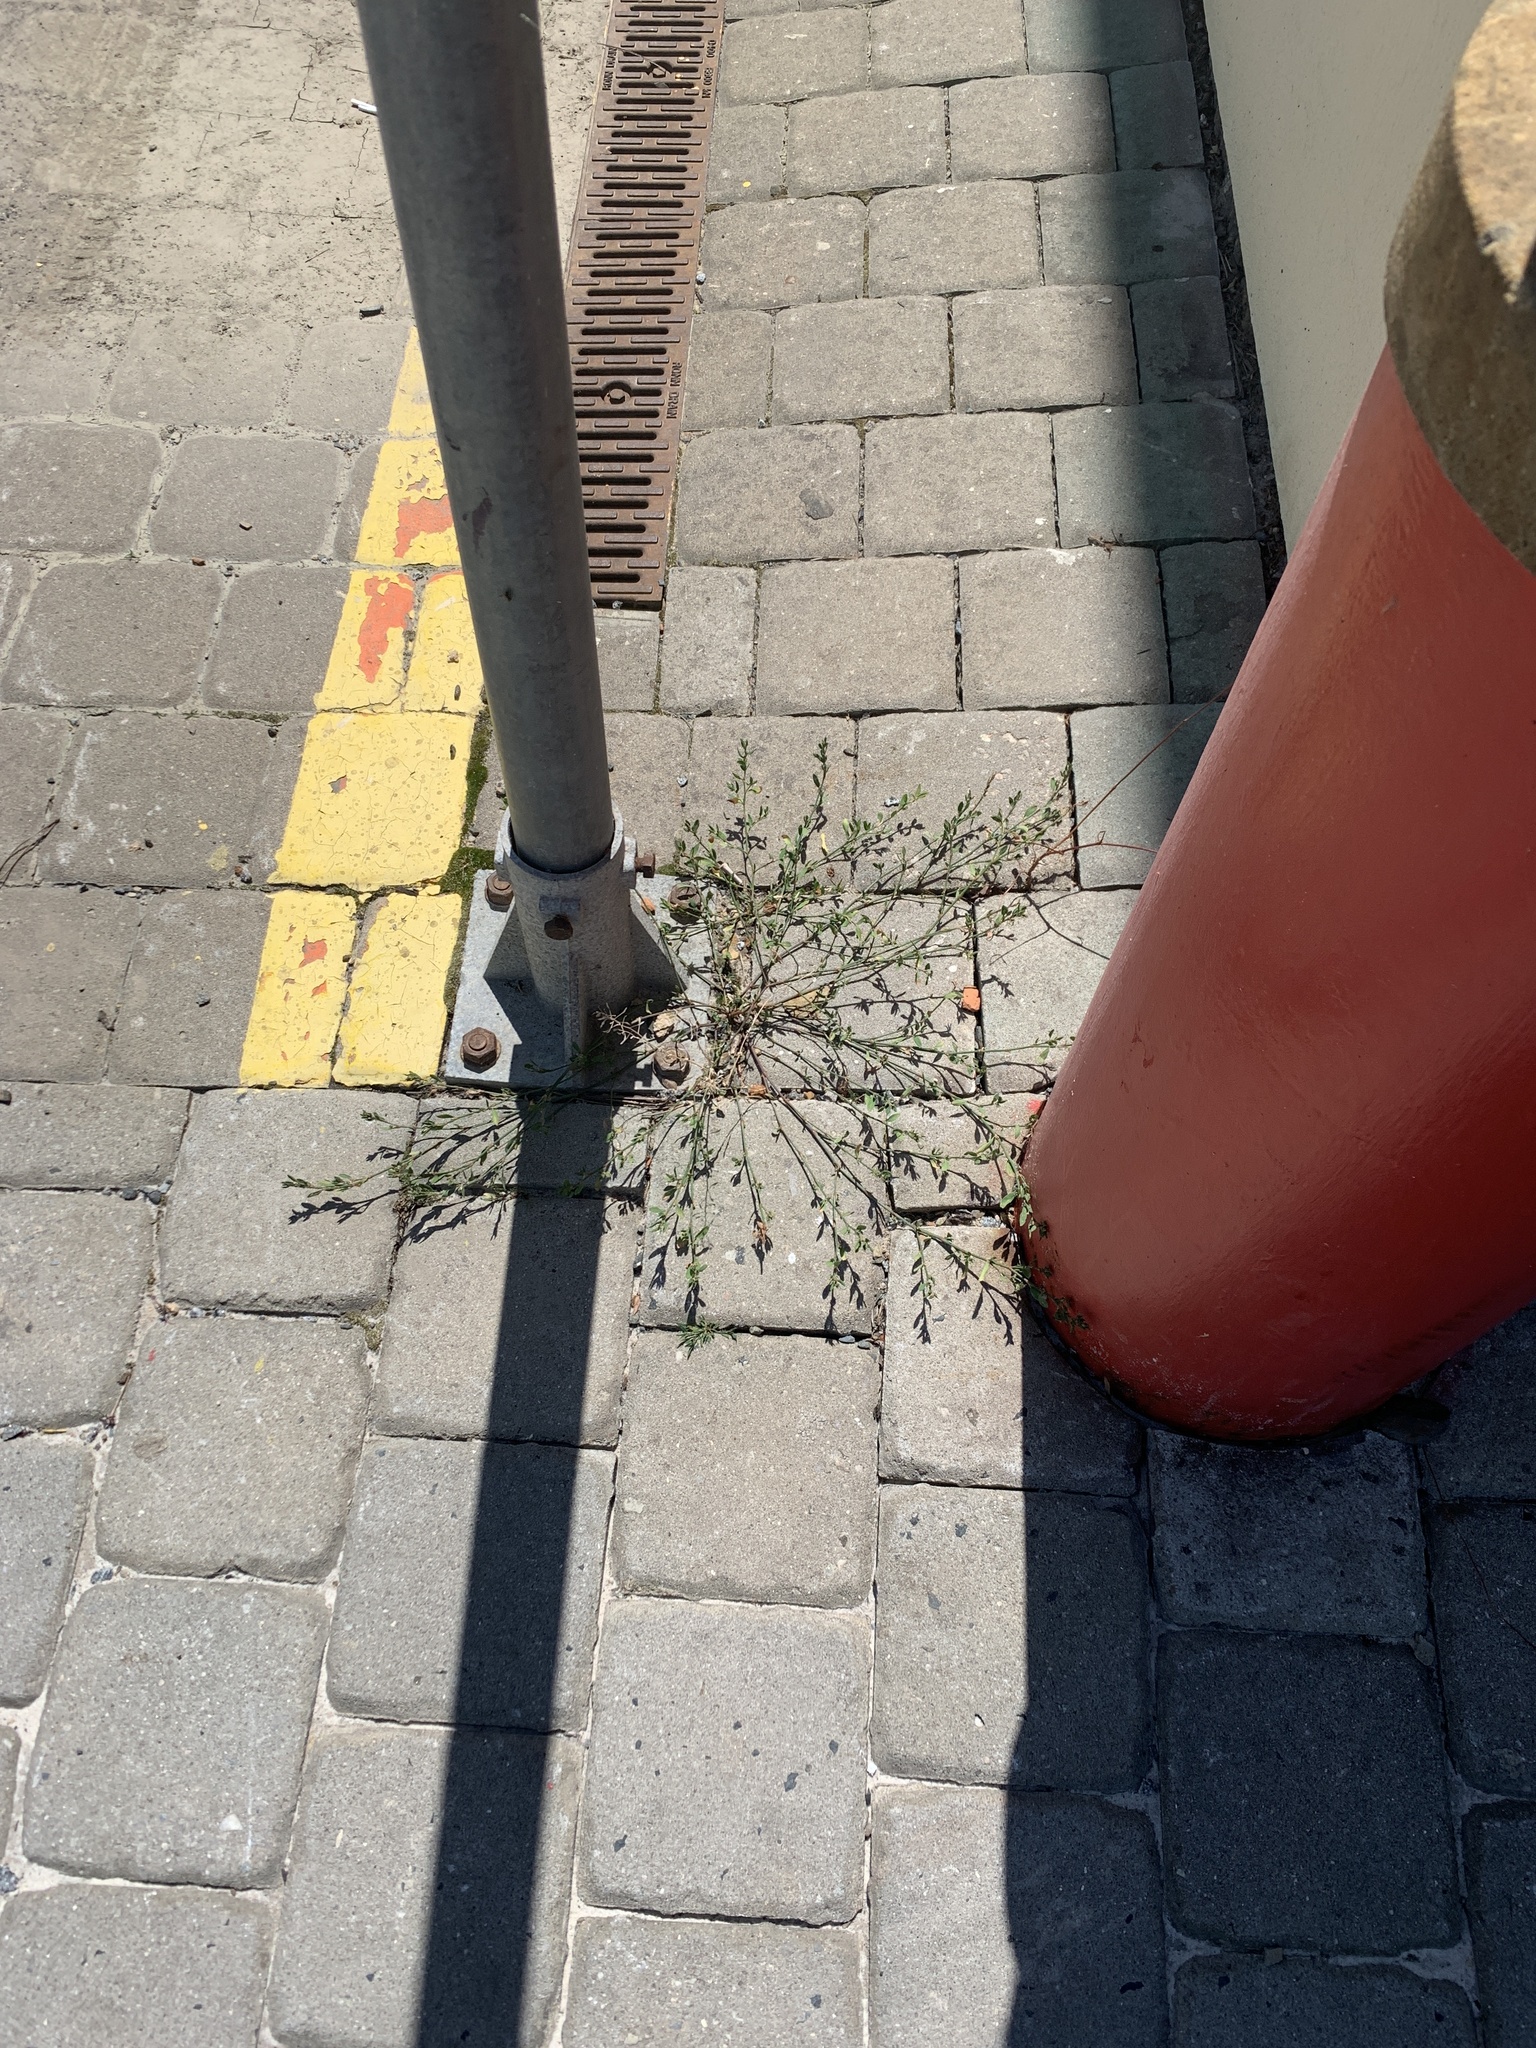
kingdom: Plantae
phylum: Tracheophyta
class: Magnoliopsida
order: Caryophyllales
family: Polygonaceae
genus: Polygonum
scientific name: Polygonum aviculare
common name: Prostrate knotweed
